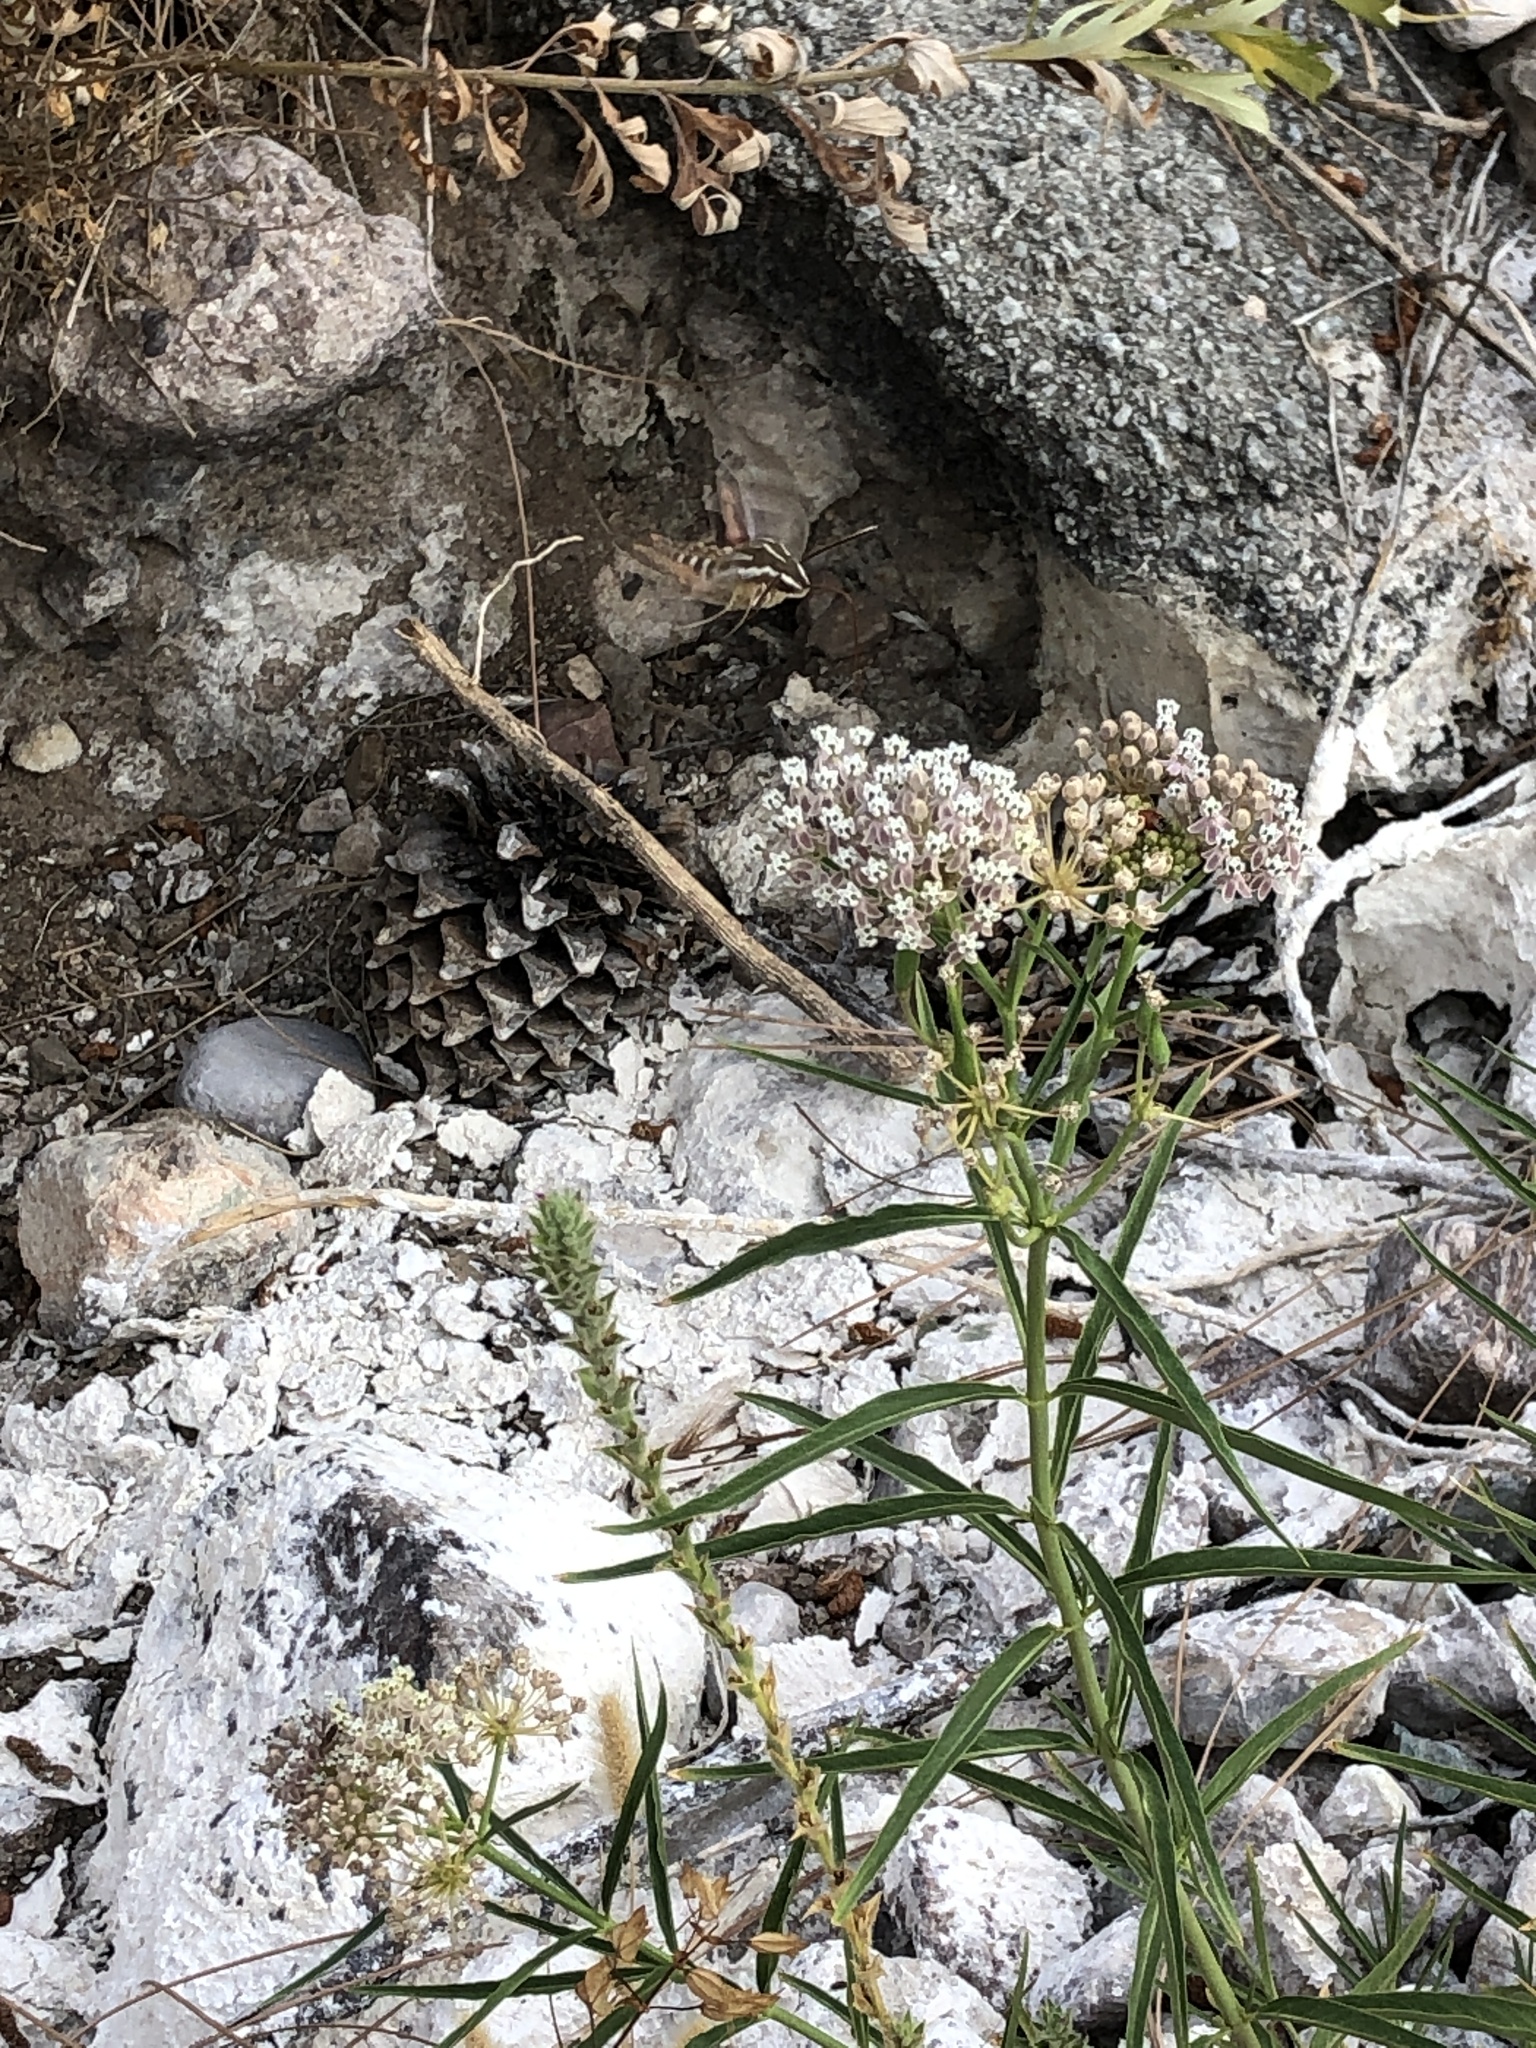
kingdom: Animalia
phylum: Arthropoda
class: Insecta
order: Lepidoptera
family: Sphingidae
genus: Hyles
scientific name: Hyles lineata
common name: White-lined sphinx
